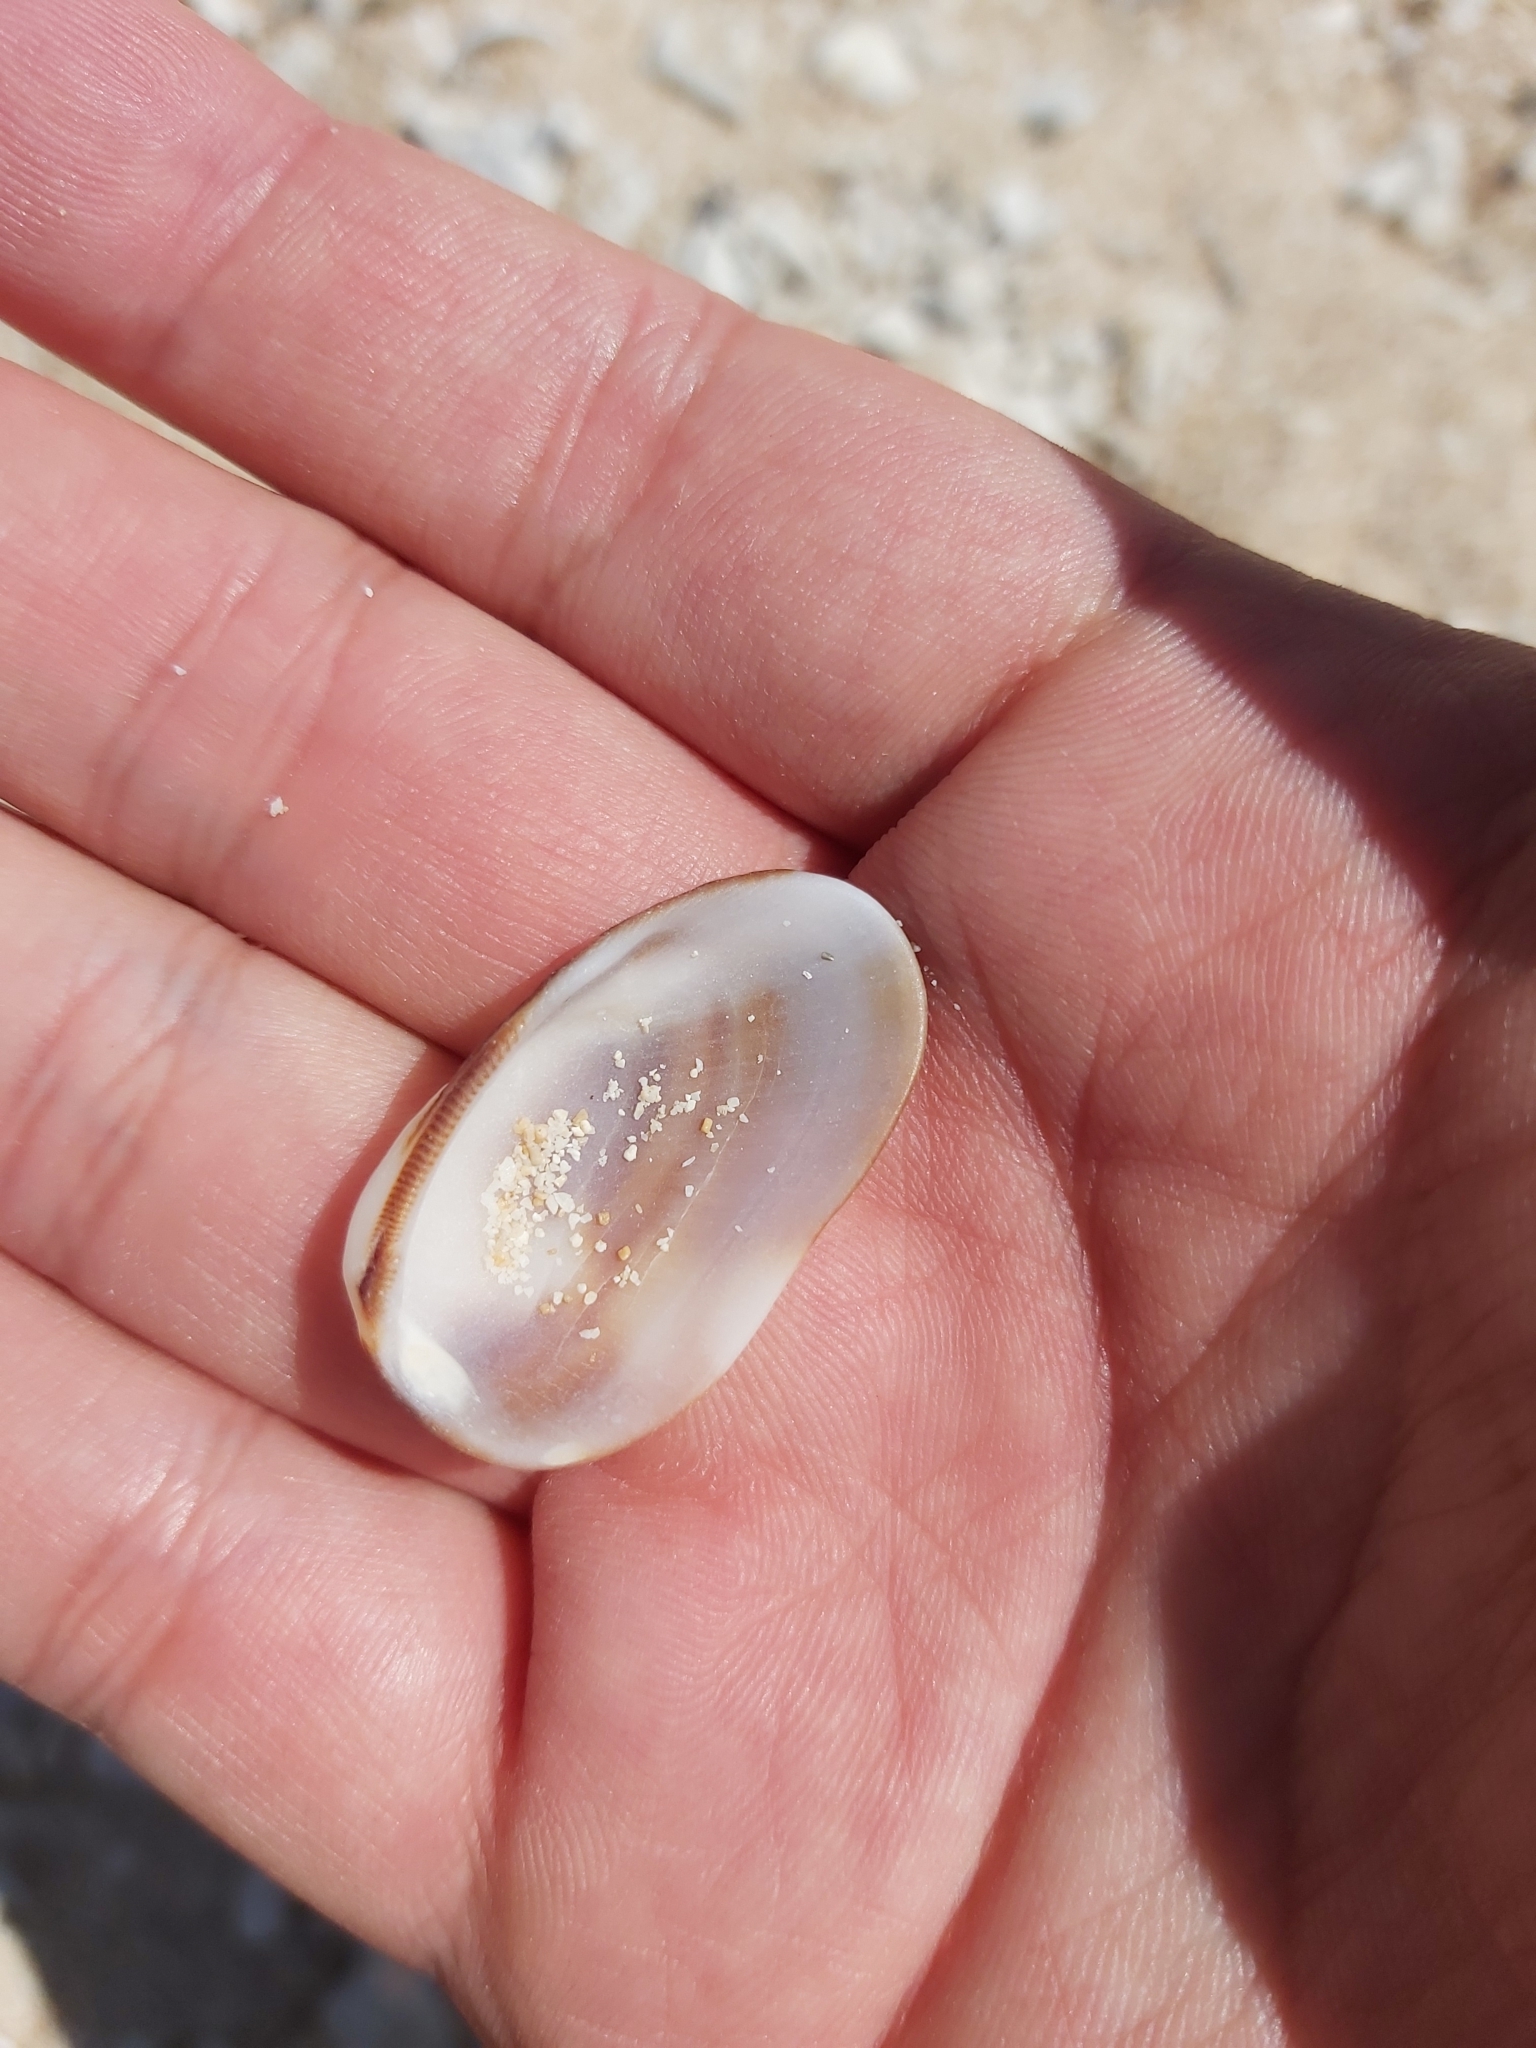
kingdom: Animalia
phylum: Mollusca
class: Bivalvia
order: Arcida
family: Arcidae
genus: Barbatia
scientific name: Barbatia amygdalumtostum
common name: Burnt-almond ark
